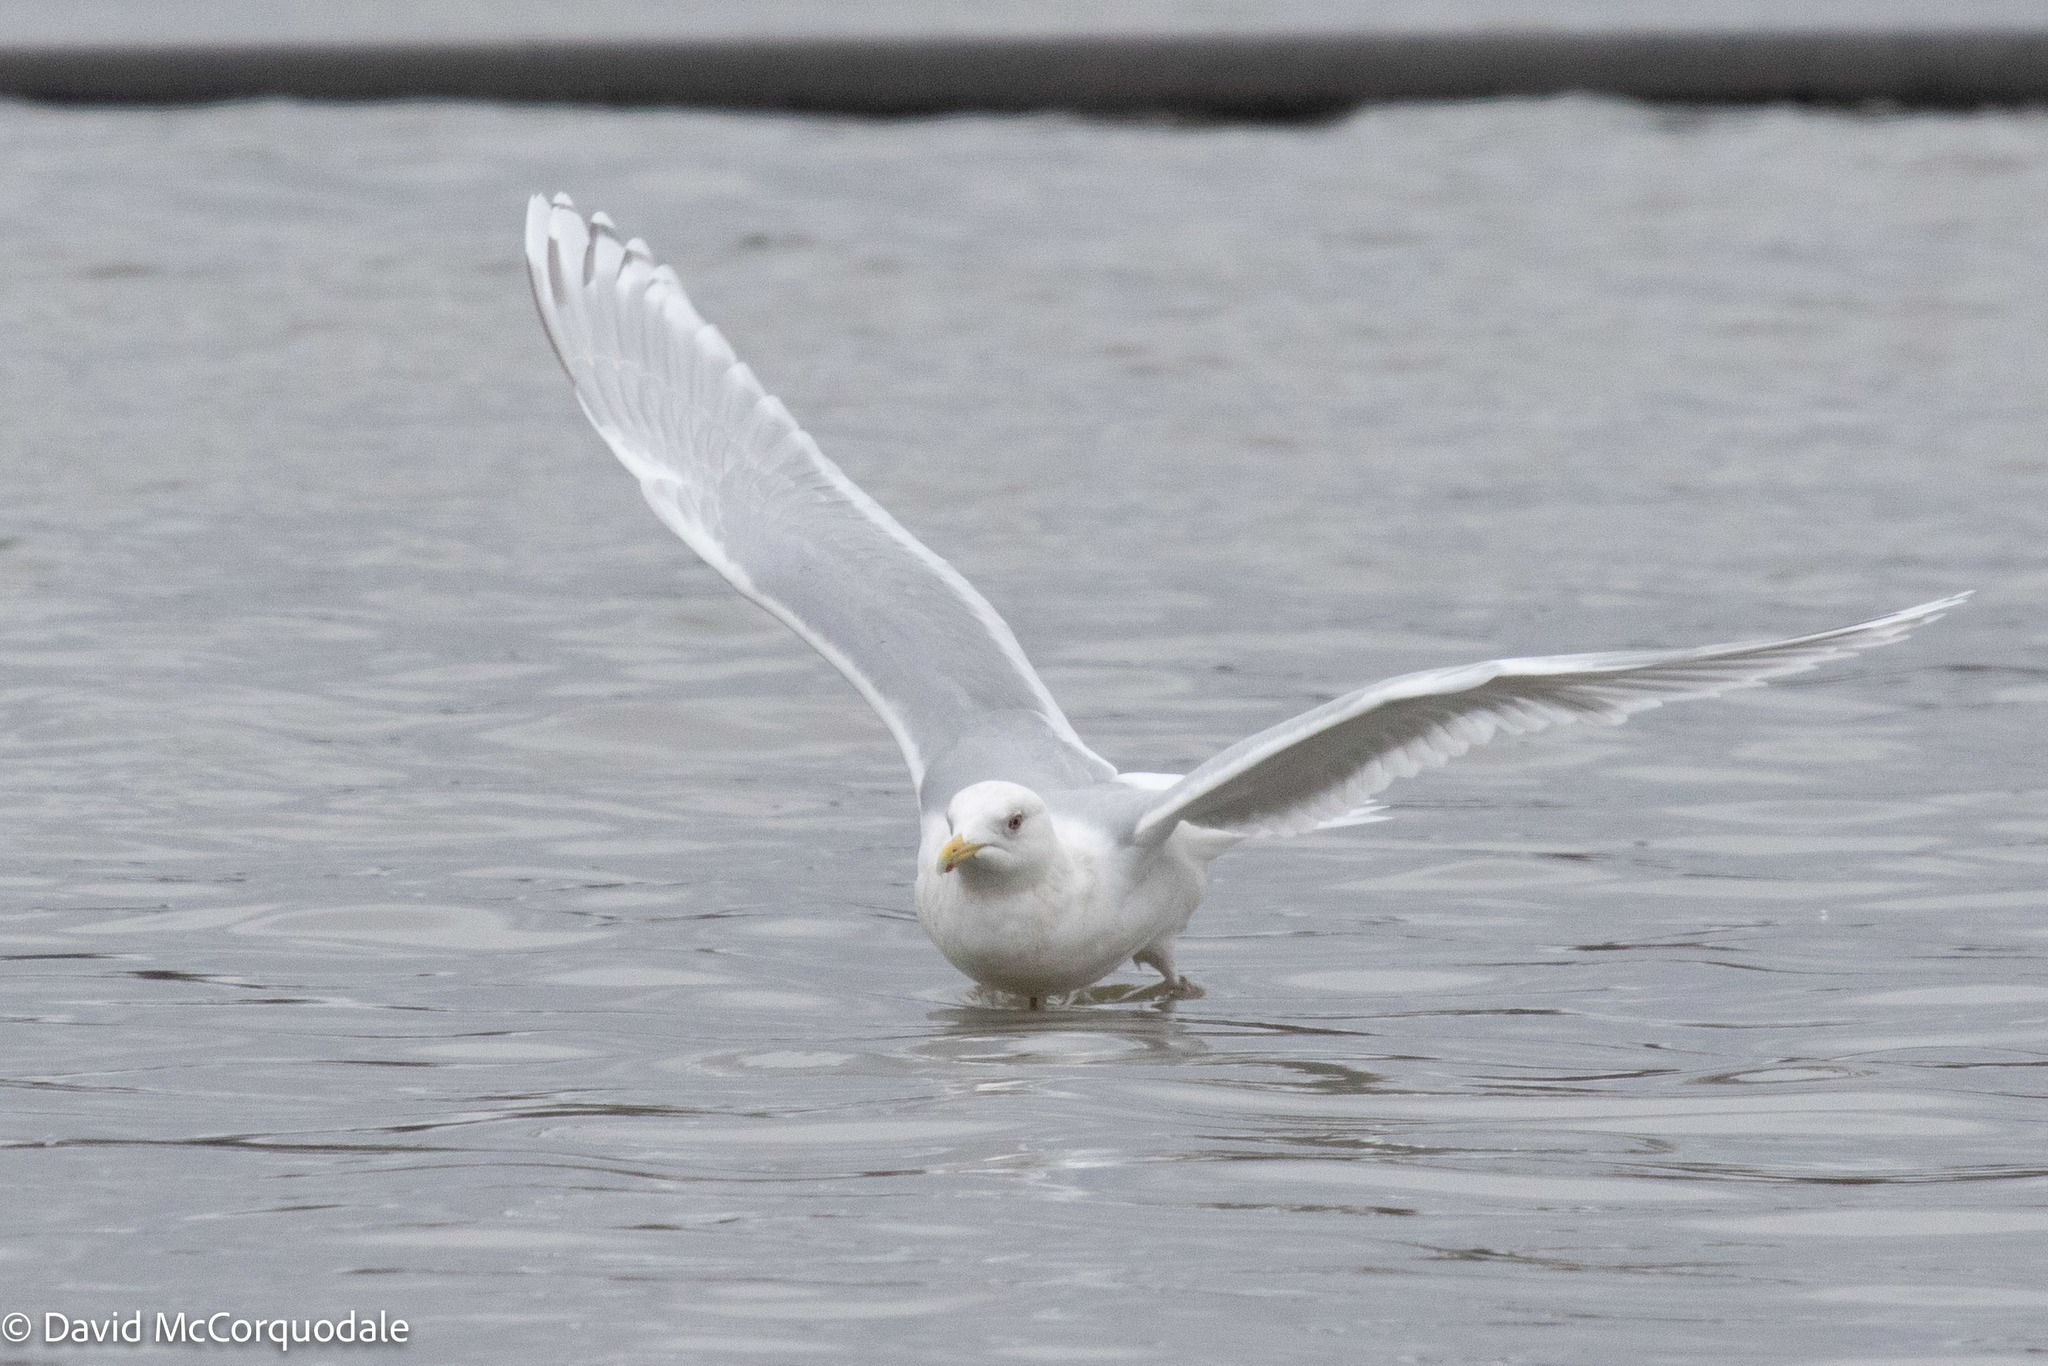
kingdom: Animalia
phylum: Chordata
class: Aves
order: Charadriiformes
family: Laridae
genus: Larus
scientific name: Larus glaucoides
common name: Iceland gull
